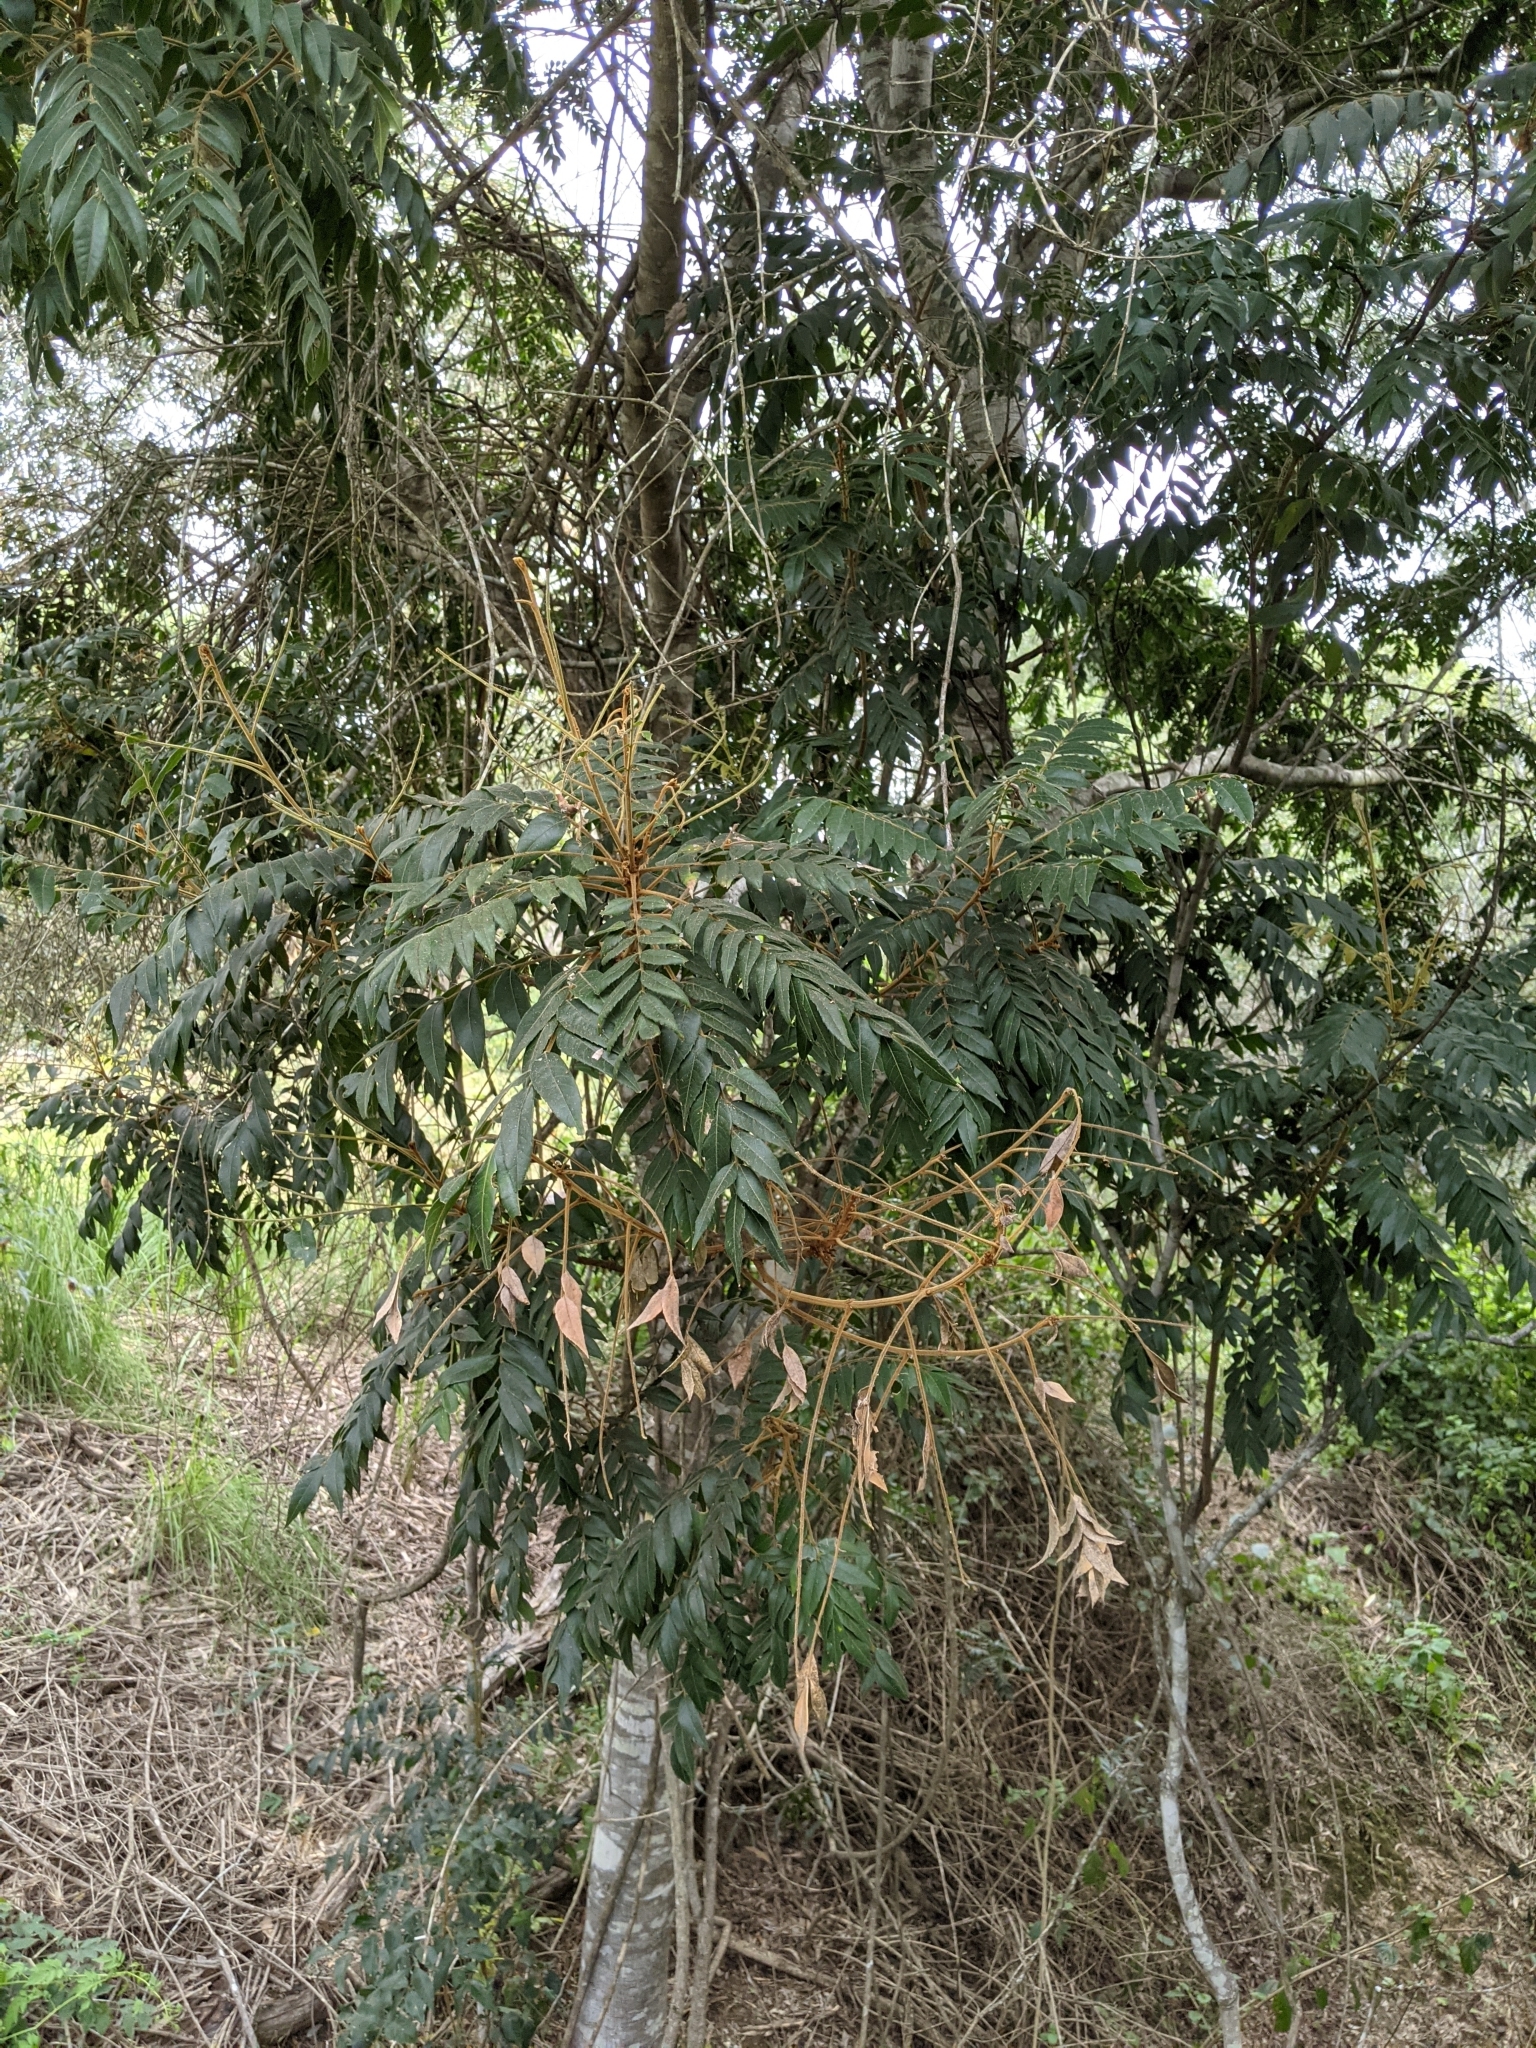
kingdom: Plantae
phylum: Tracheophyta
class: Magnoliopsida
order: Sapindales
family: Sapindaceae
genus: Jagera
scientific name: Jagera pseudorhus
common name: Fern-leaf-tamarind
